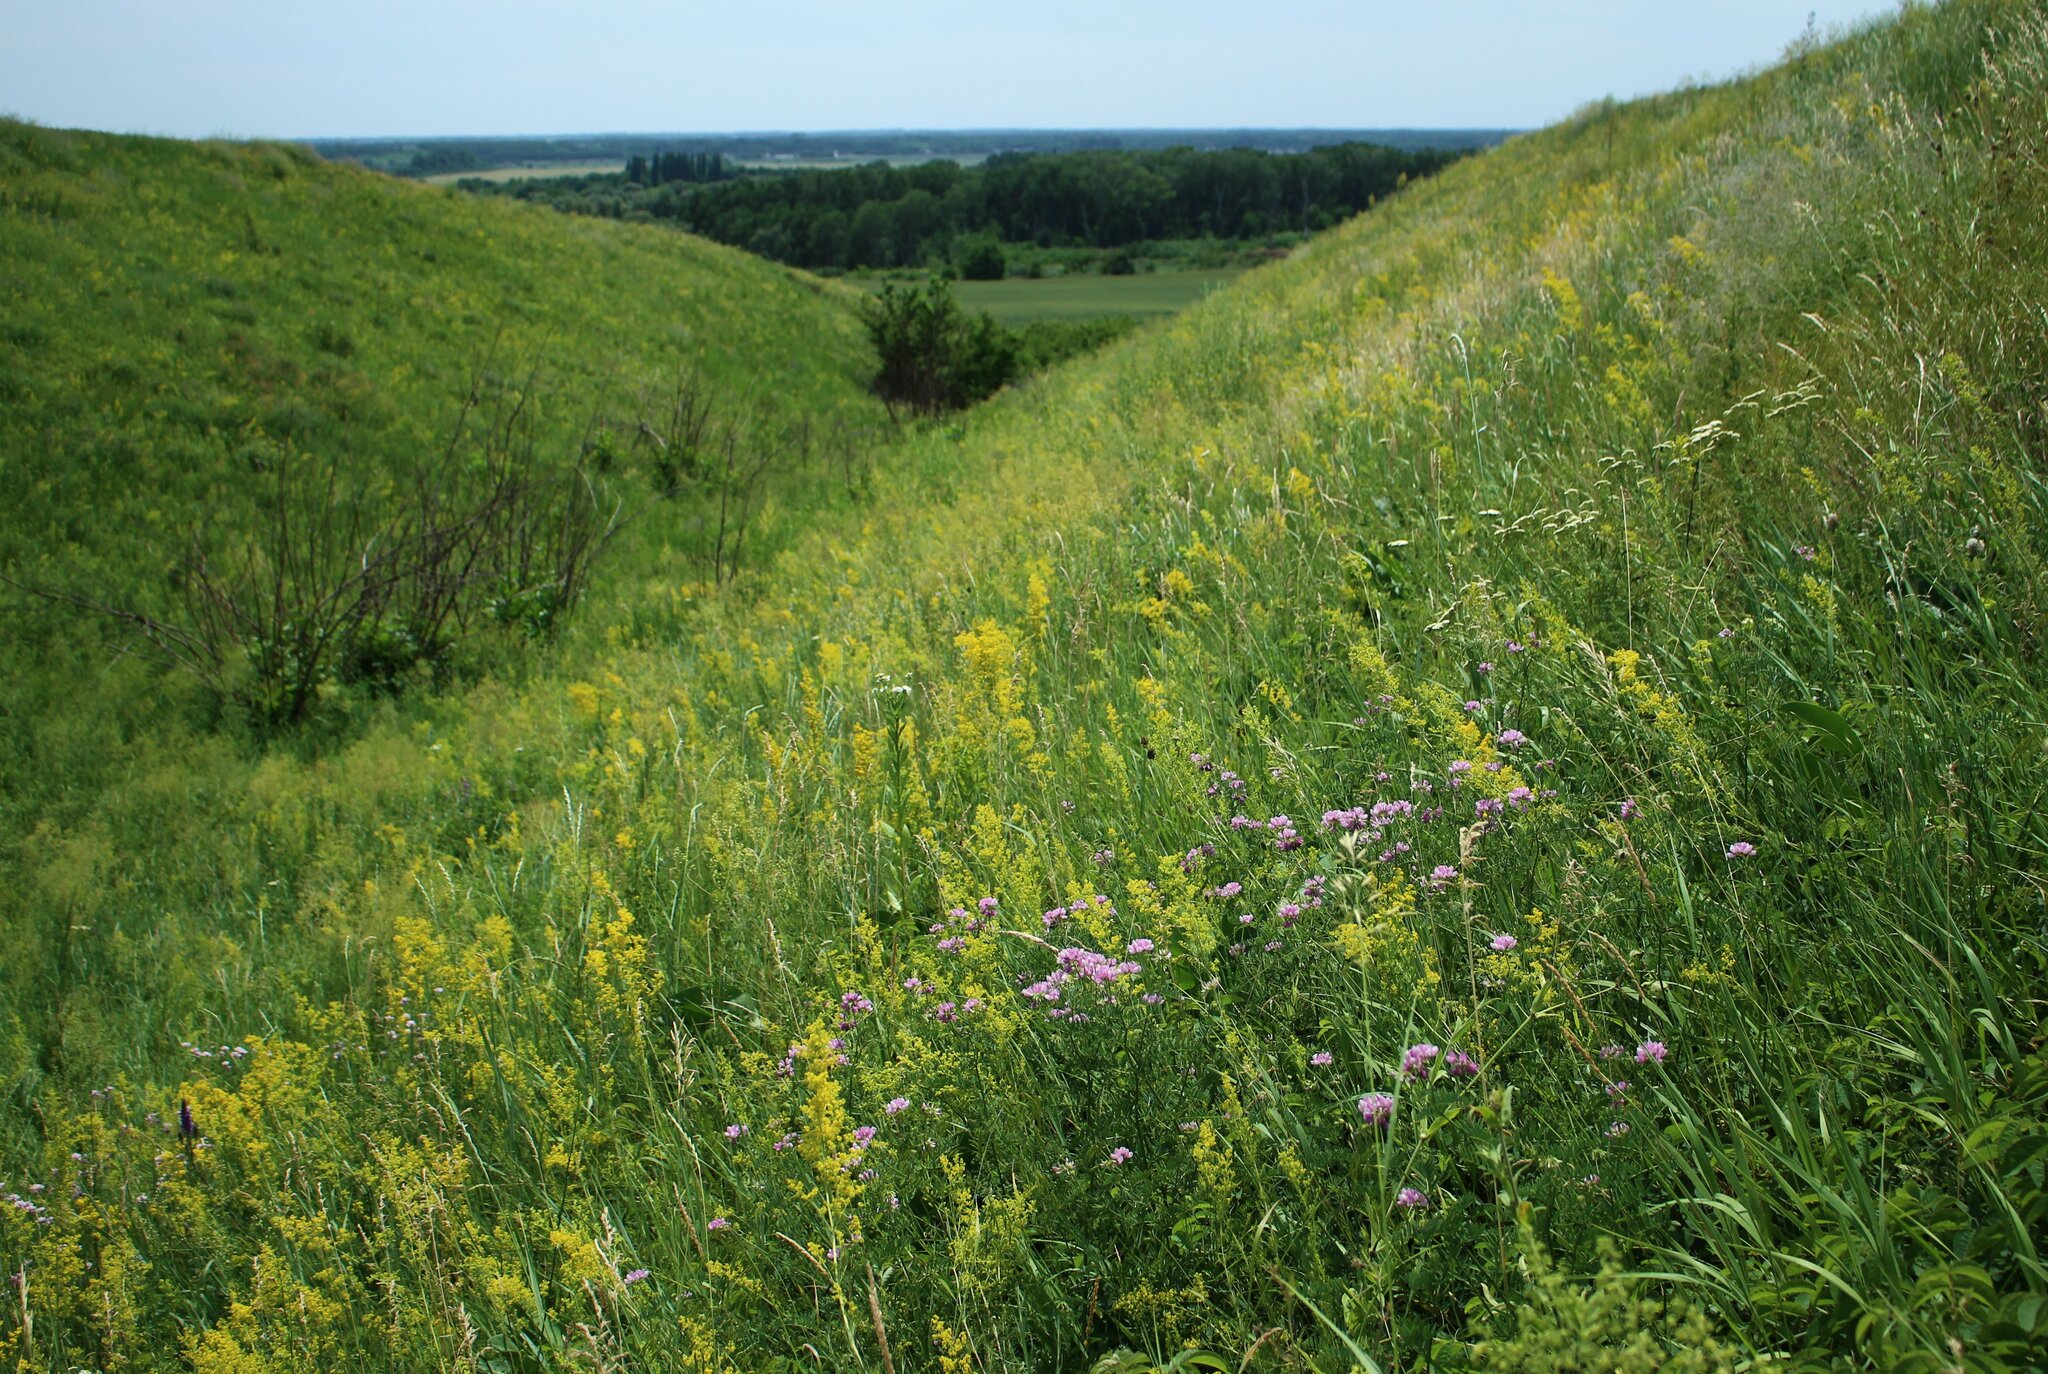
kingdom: Plantae
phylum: Tracheophyta
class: Magnoliopsida
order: Fabales
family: Fabaceae
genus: Coronilla
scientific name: Coronilla varia
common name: Crownvetch
